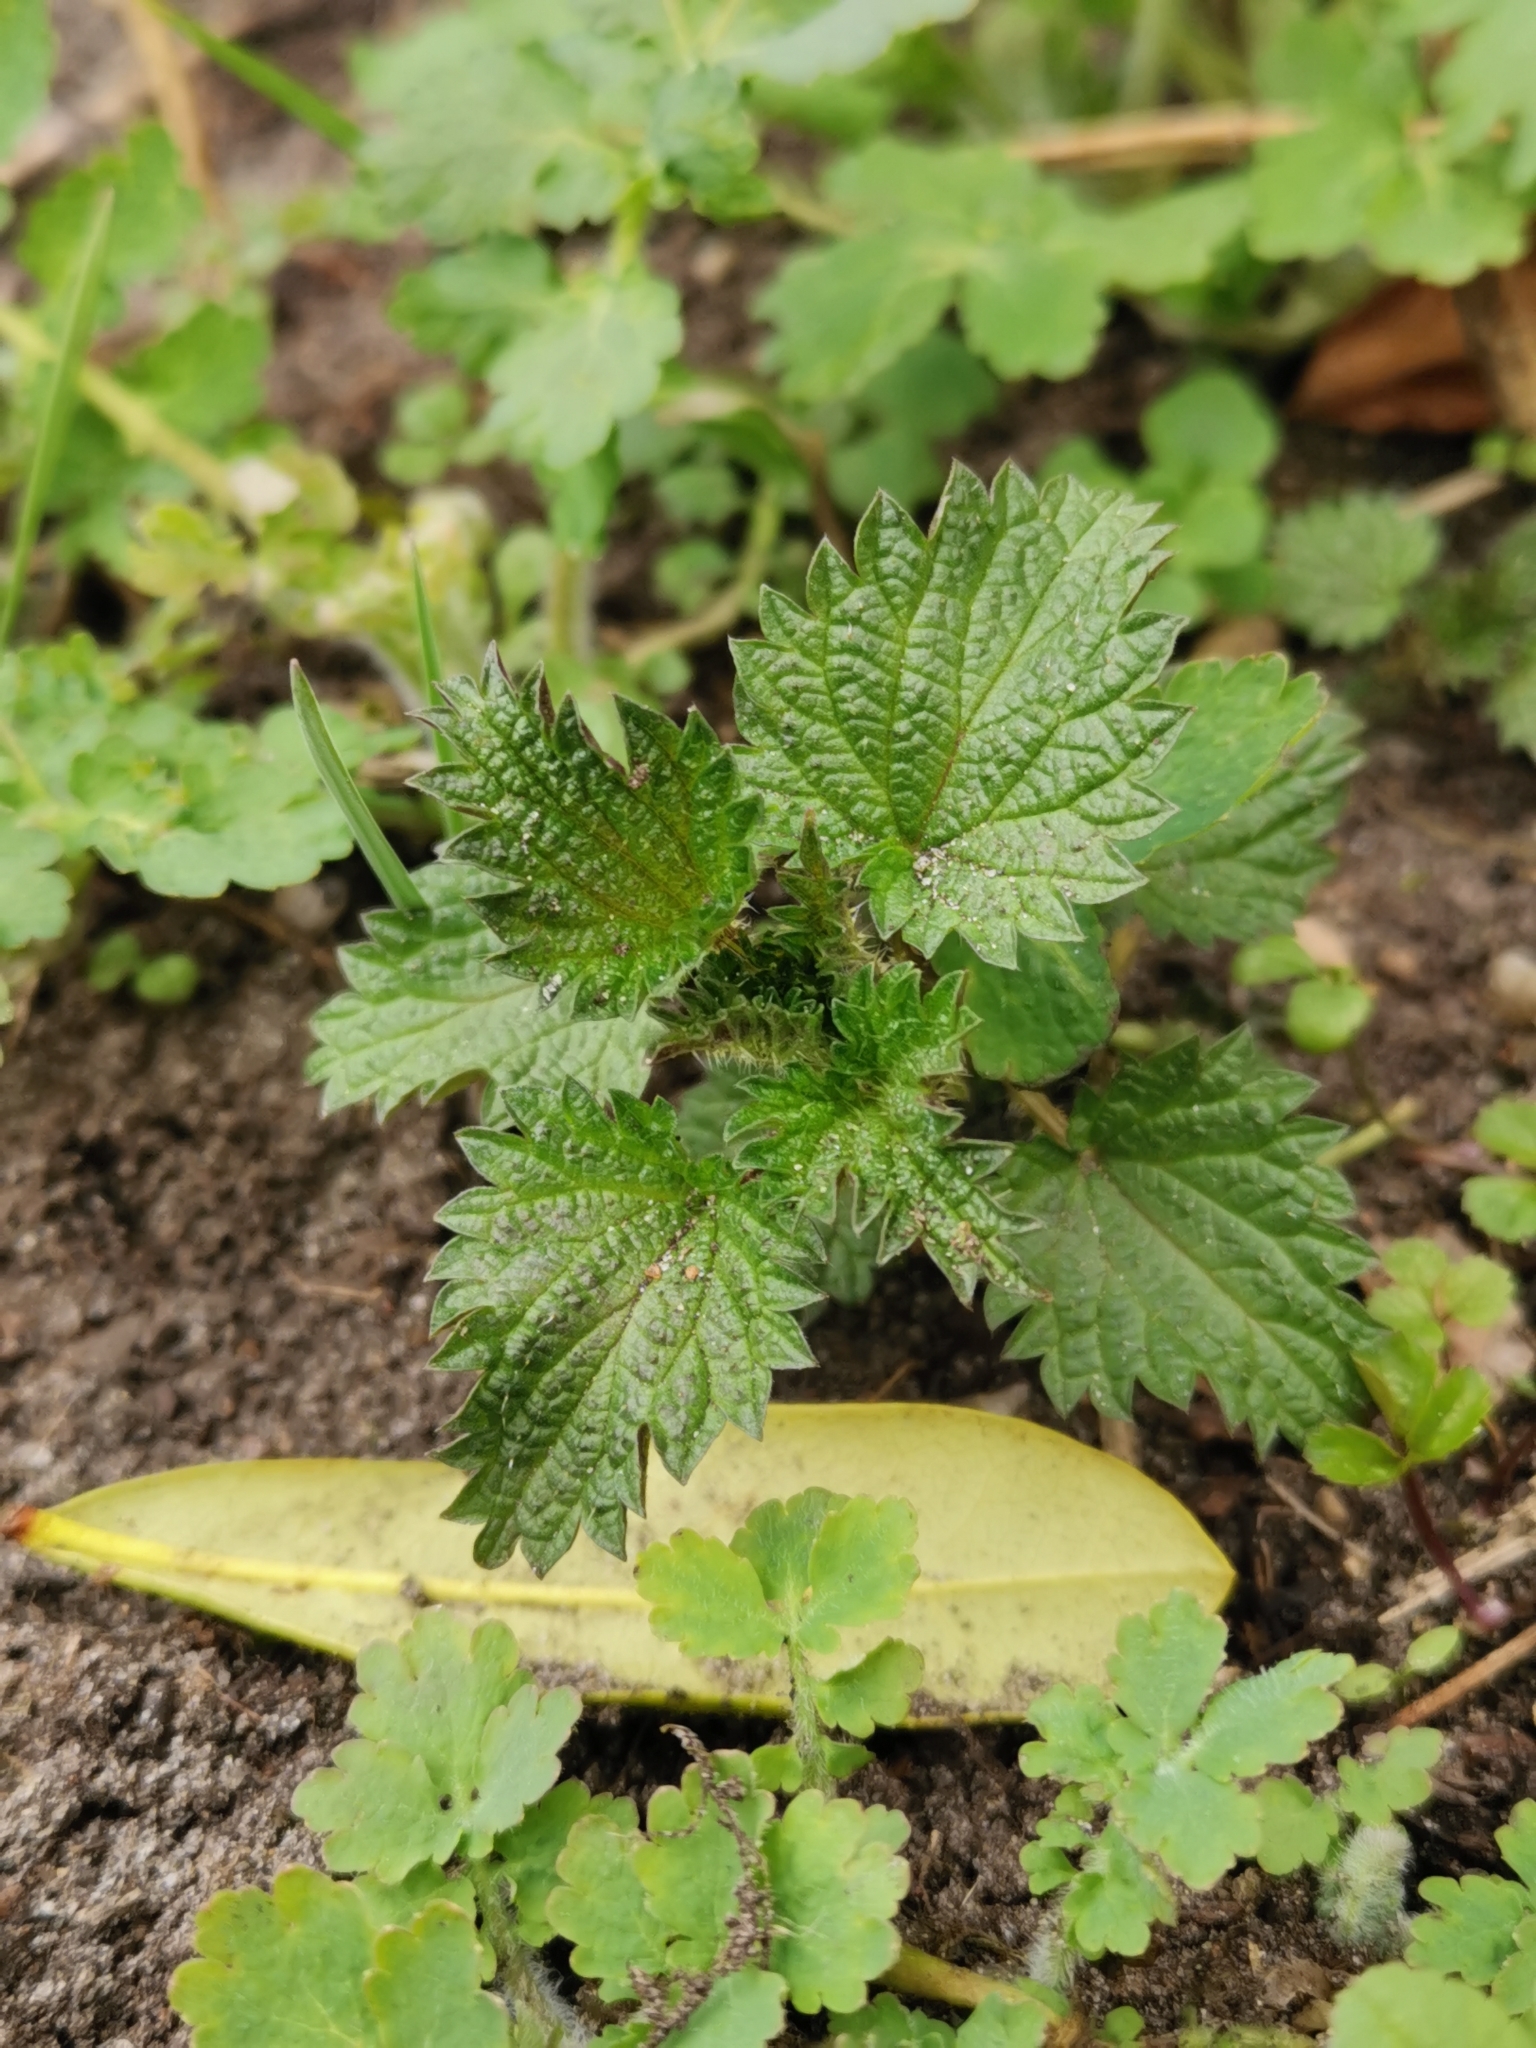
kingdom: Plantae
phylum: Tracheophyta
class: Magnoliopsida
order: Rosales
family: Urticaceae
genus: Urtica
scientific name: Urtica dioica
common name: Common nettle
